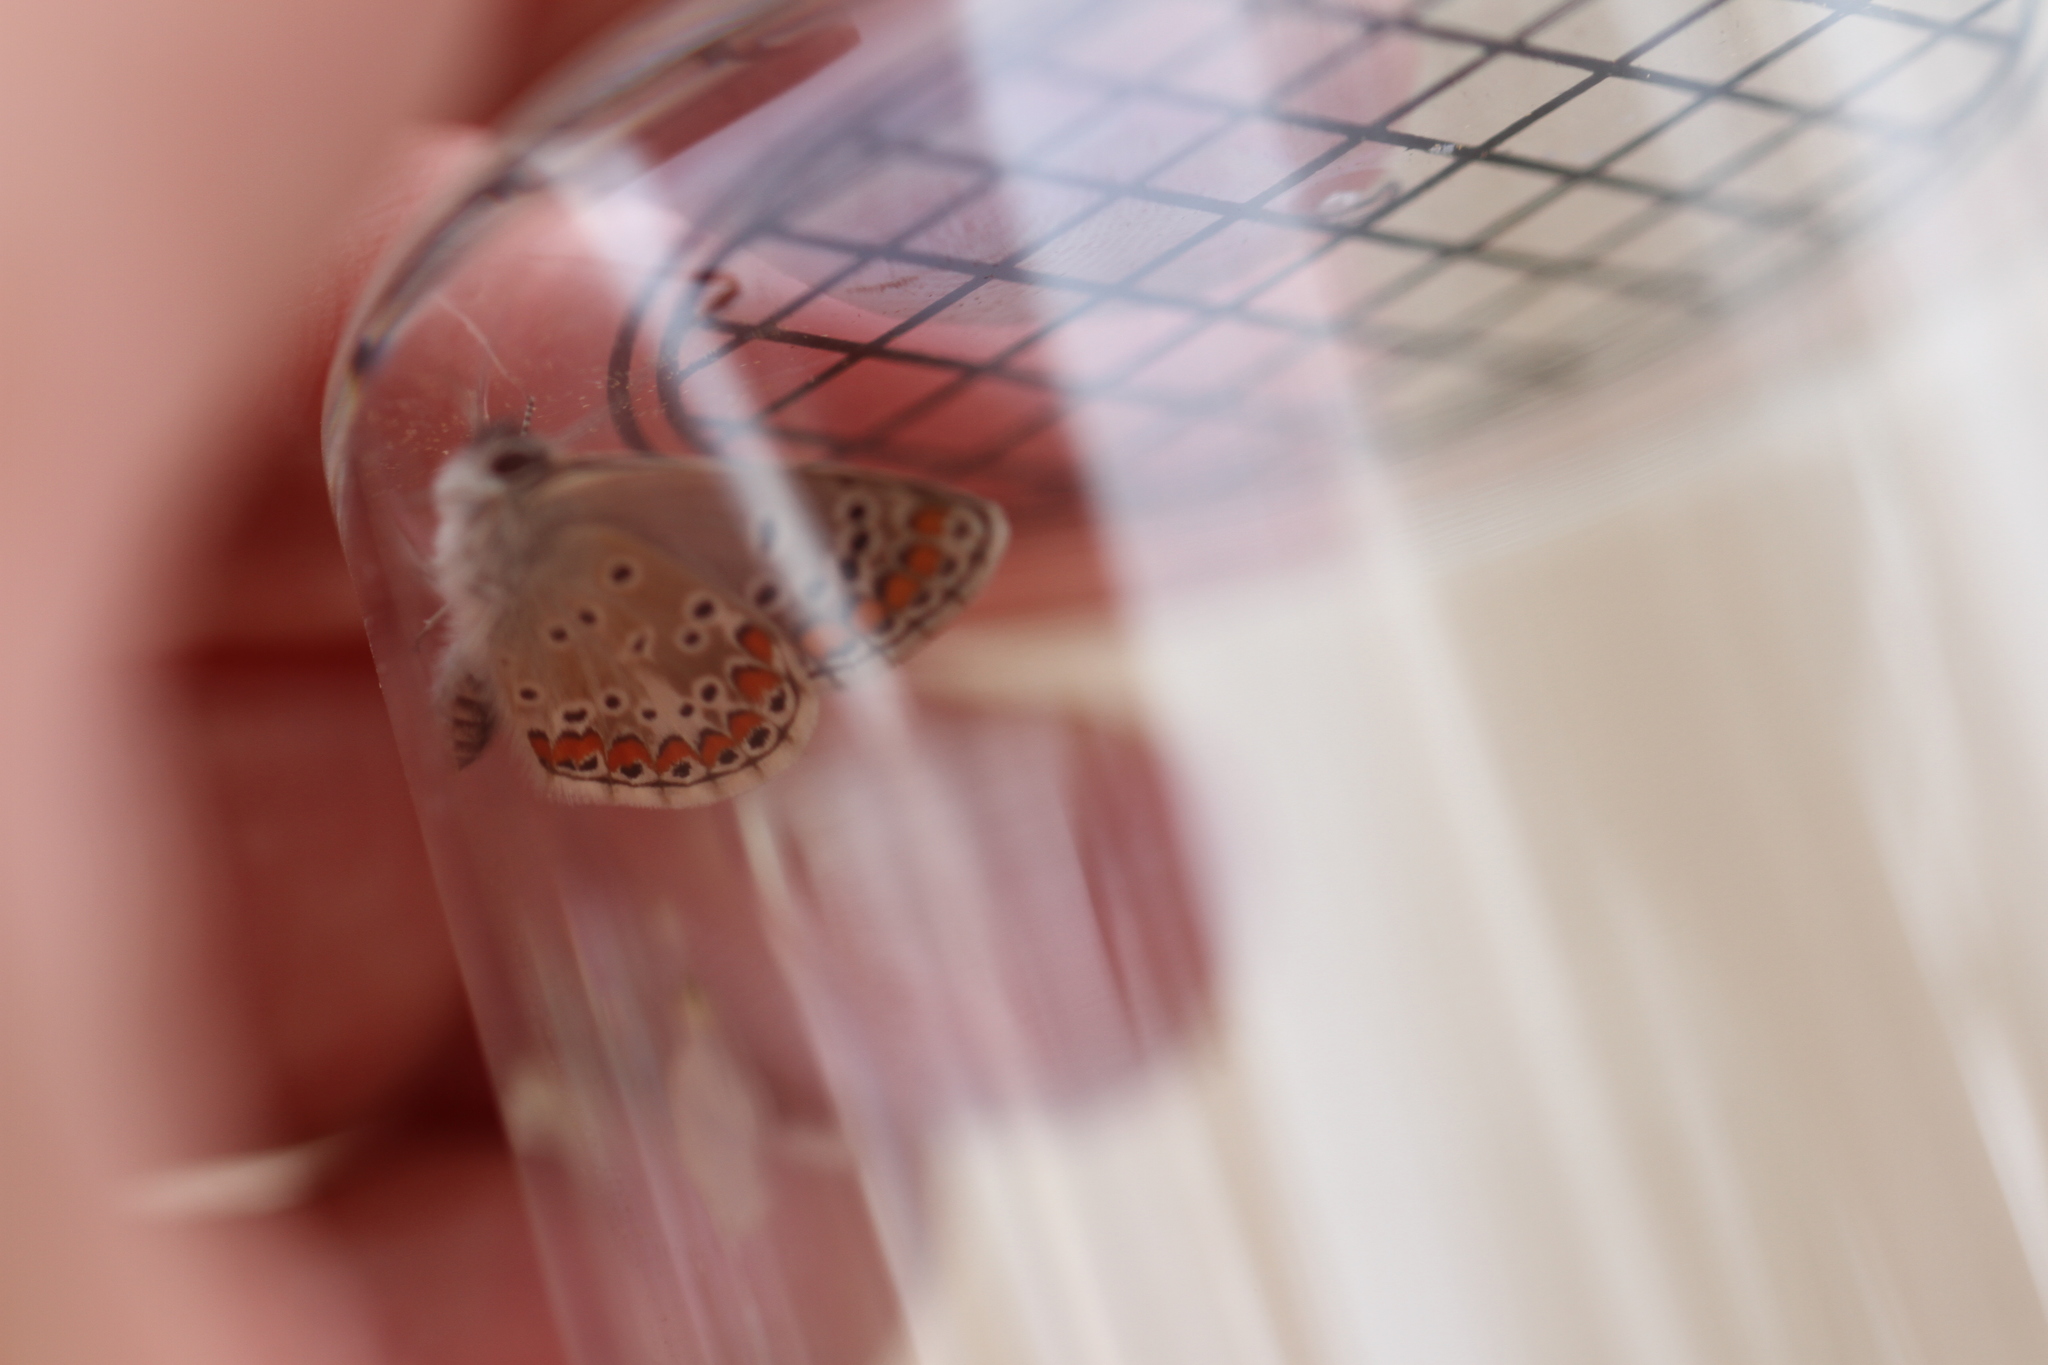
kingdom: Animalia
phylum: Arthropoda
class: Insecta
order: Lepidoptera
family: Lycaenidae
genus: Aricia
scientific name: Aricia agestis
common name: Brown argus
